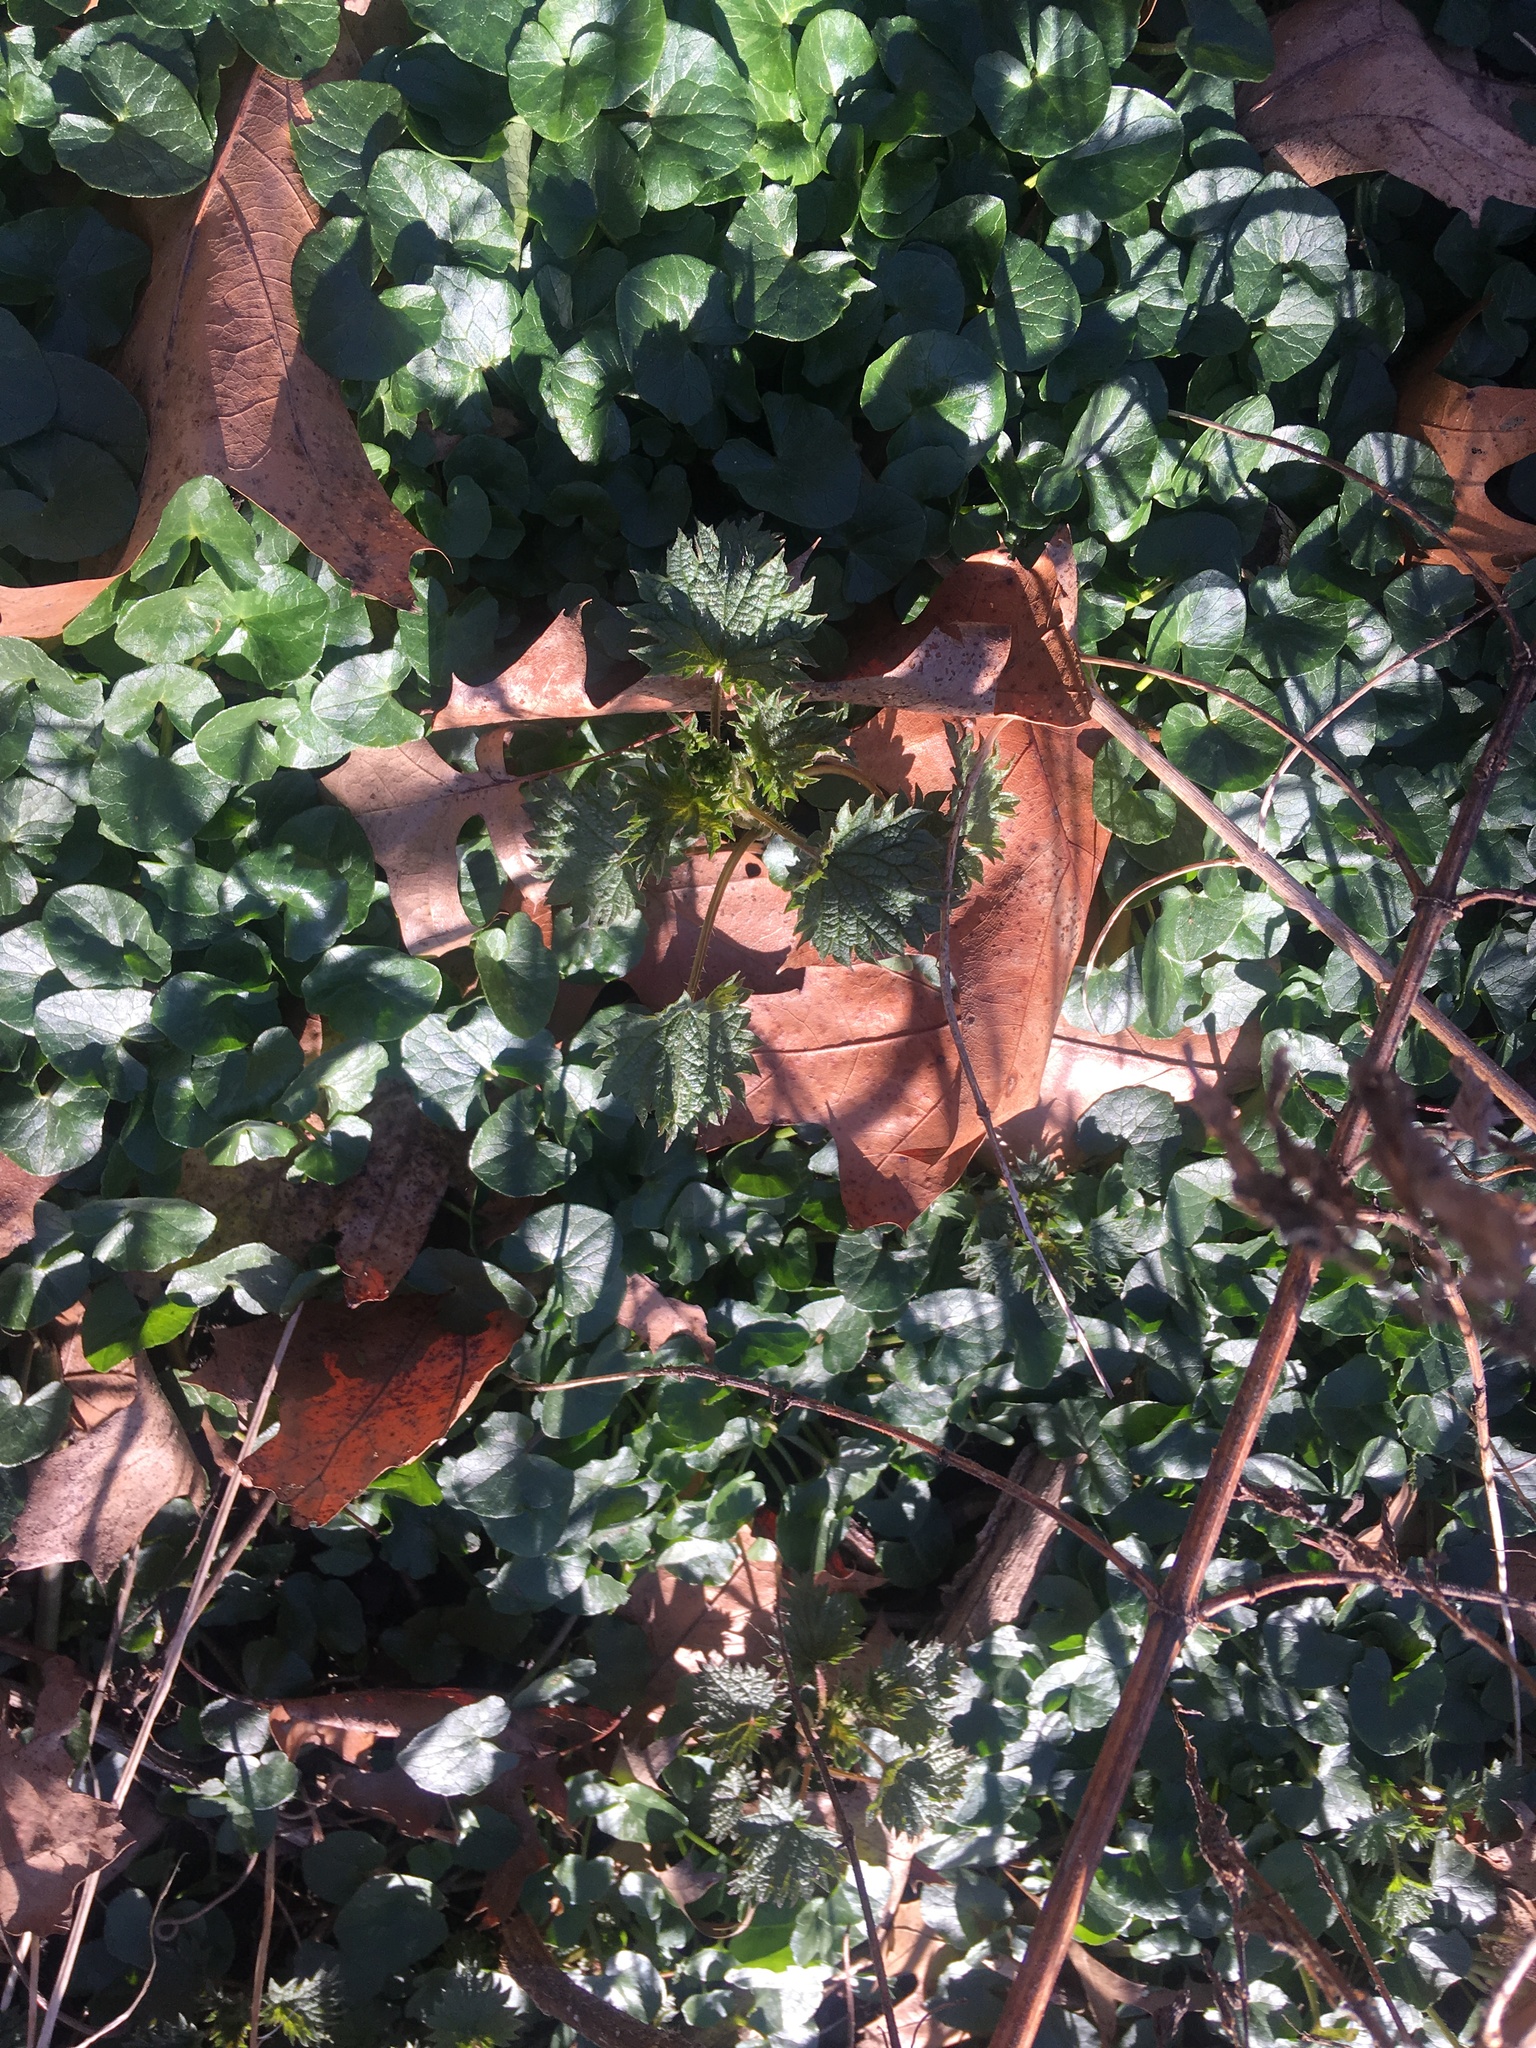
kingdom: Plantae
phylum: Tracheophyta
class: Magnoliopsida
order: Ranunculales
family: Ranunculaceae
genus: Ficaria
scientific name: Ficaria verna
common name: Lesser celandine
